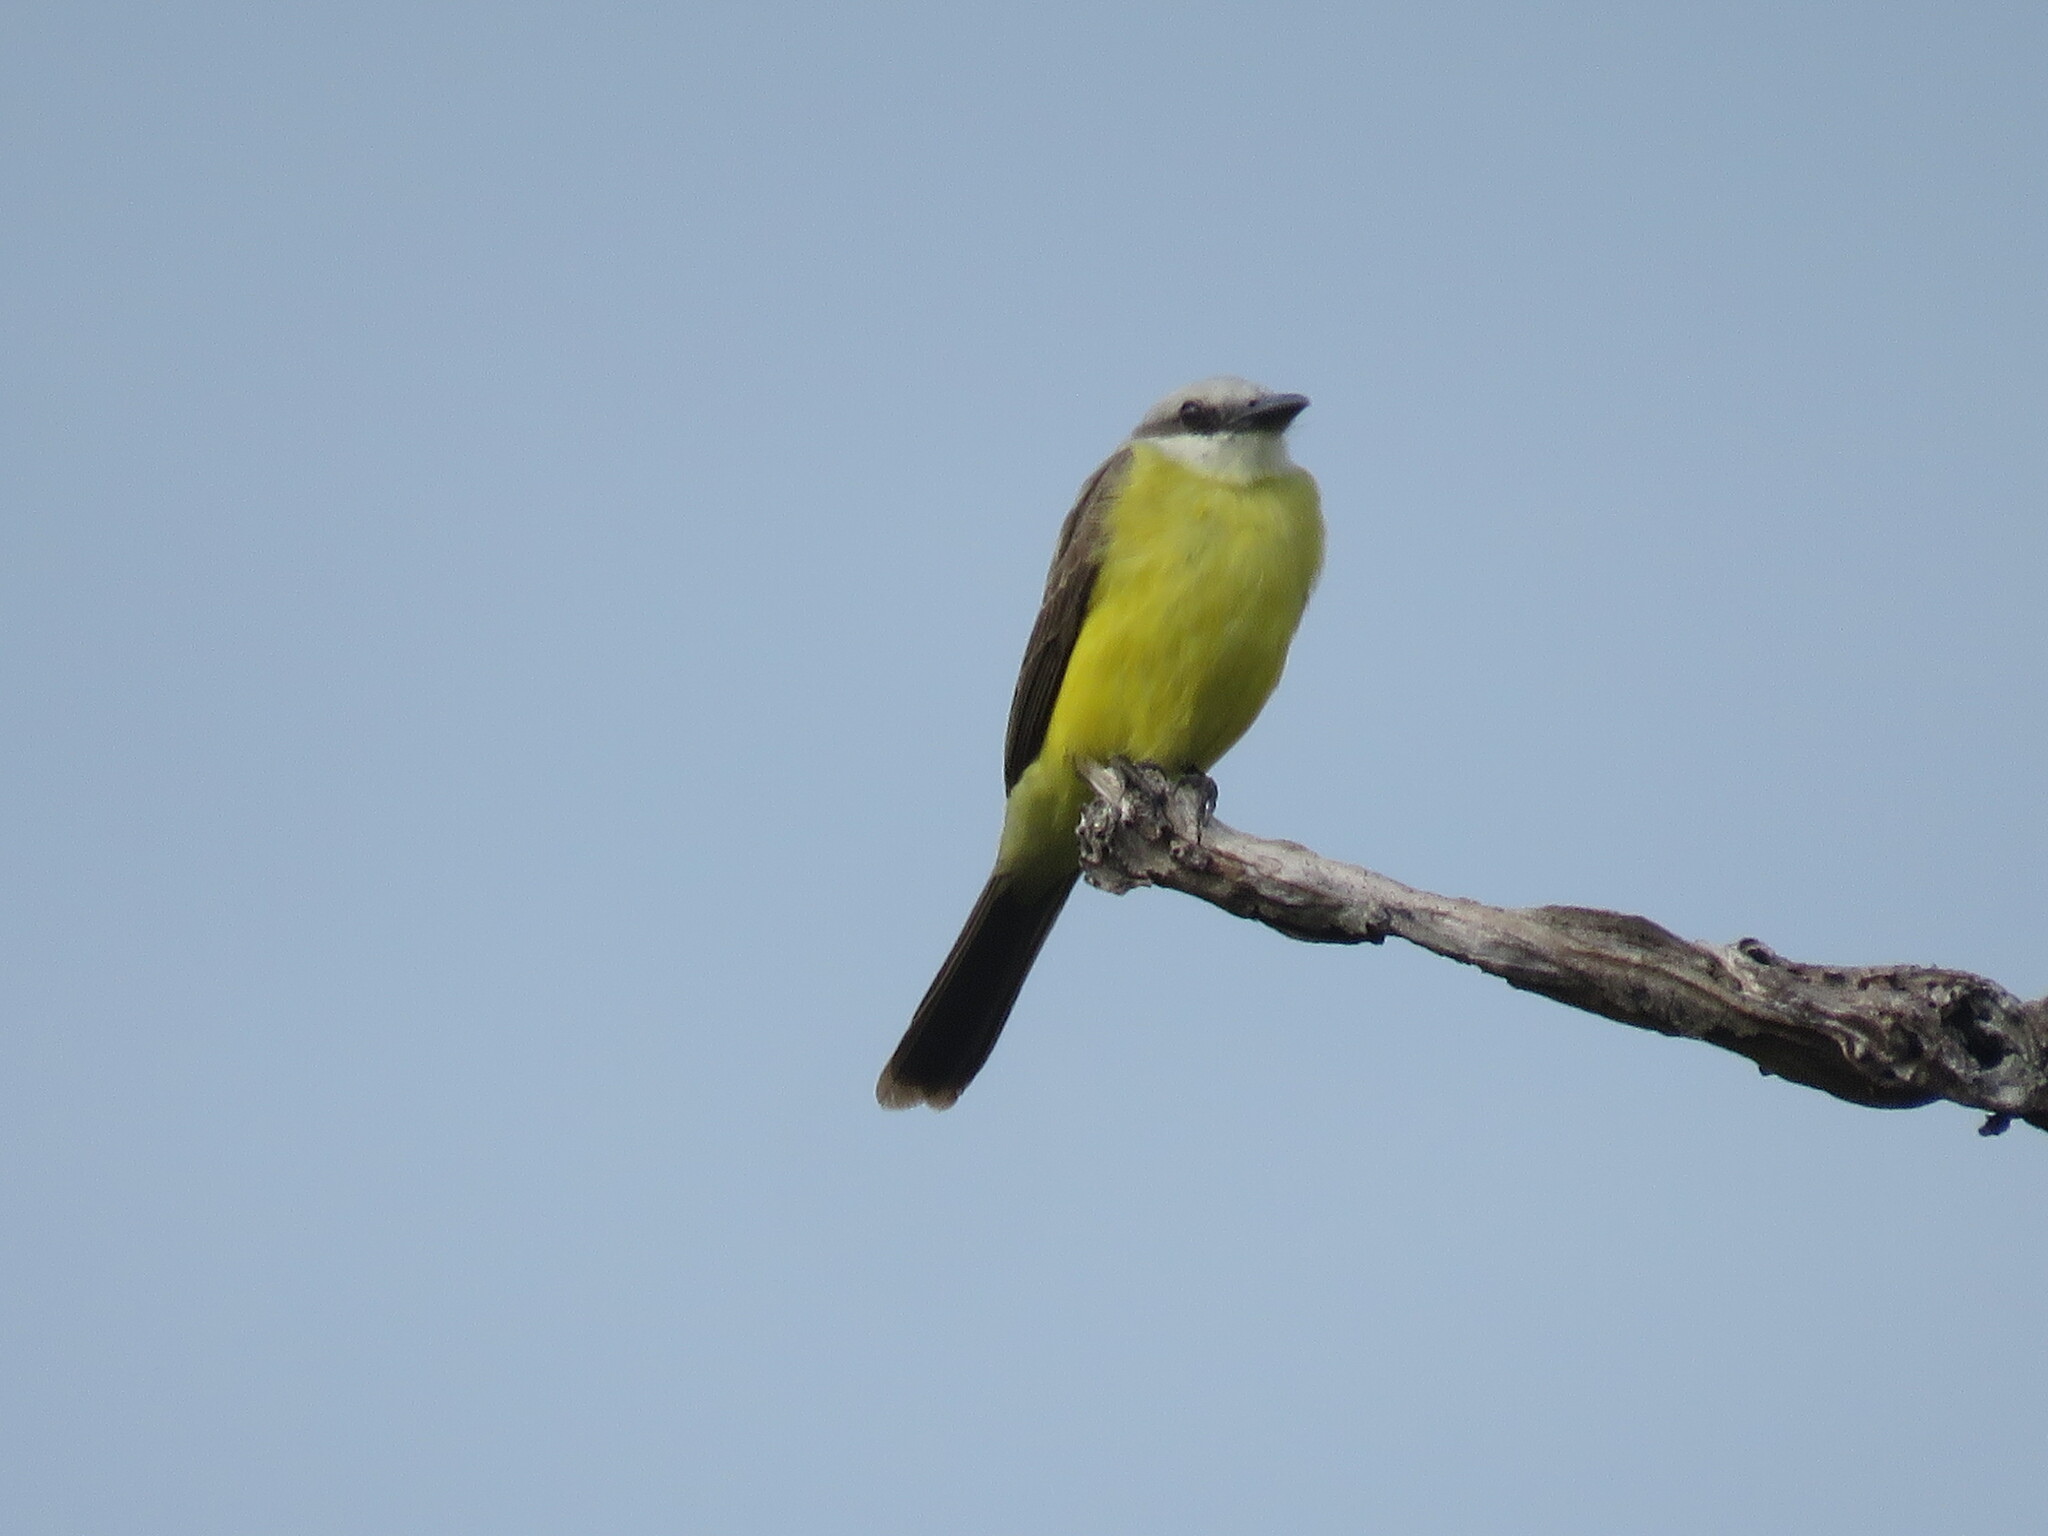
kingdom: Animalia
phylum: Chordata
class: Aves
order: Passeriformes
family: Tyrannidae
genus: Tyrannus
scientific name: Tyrannus albogularis
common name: White-throated kingbird
